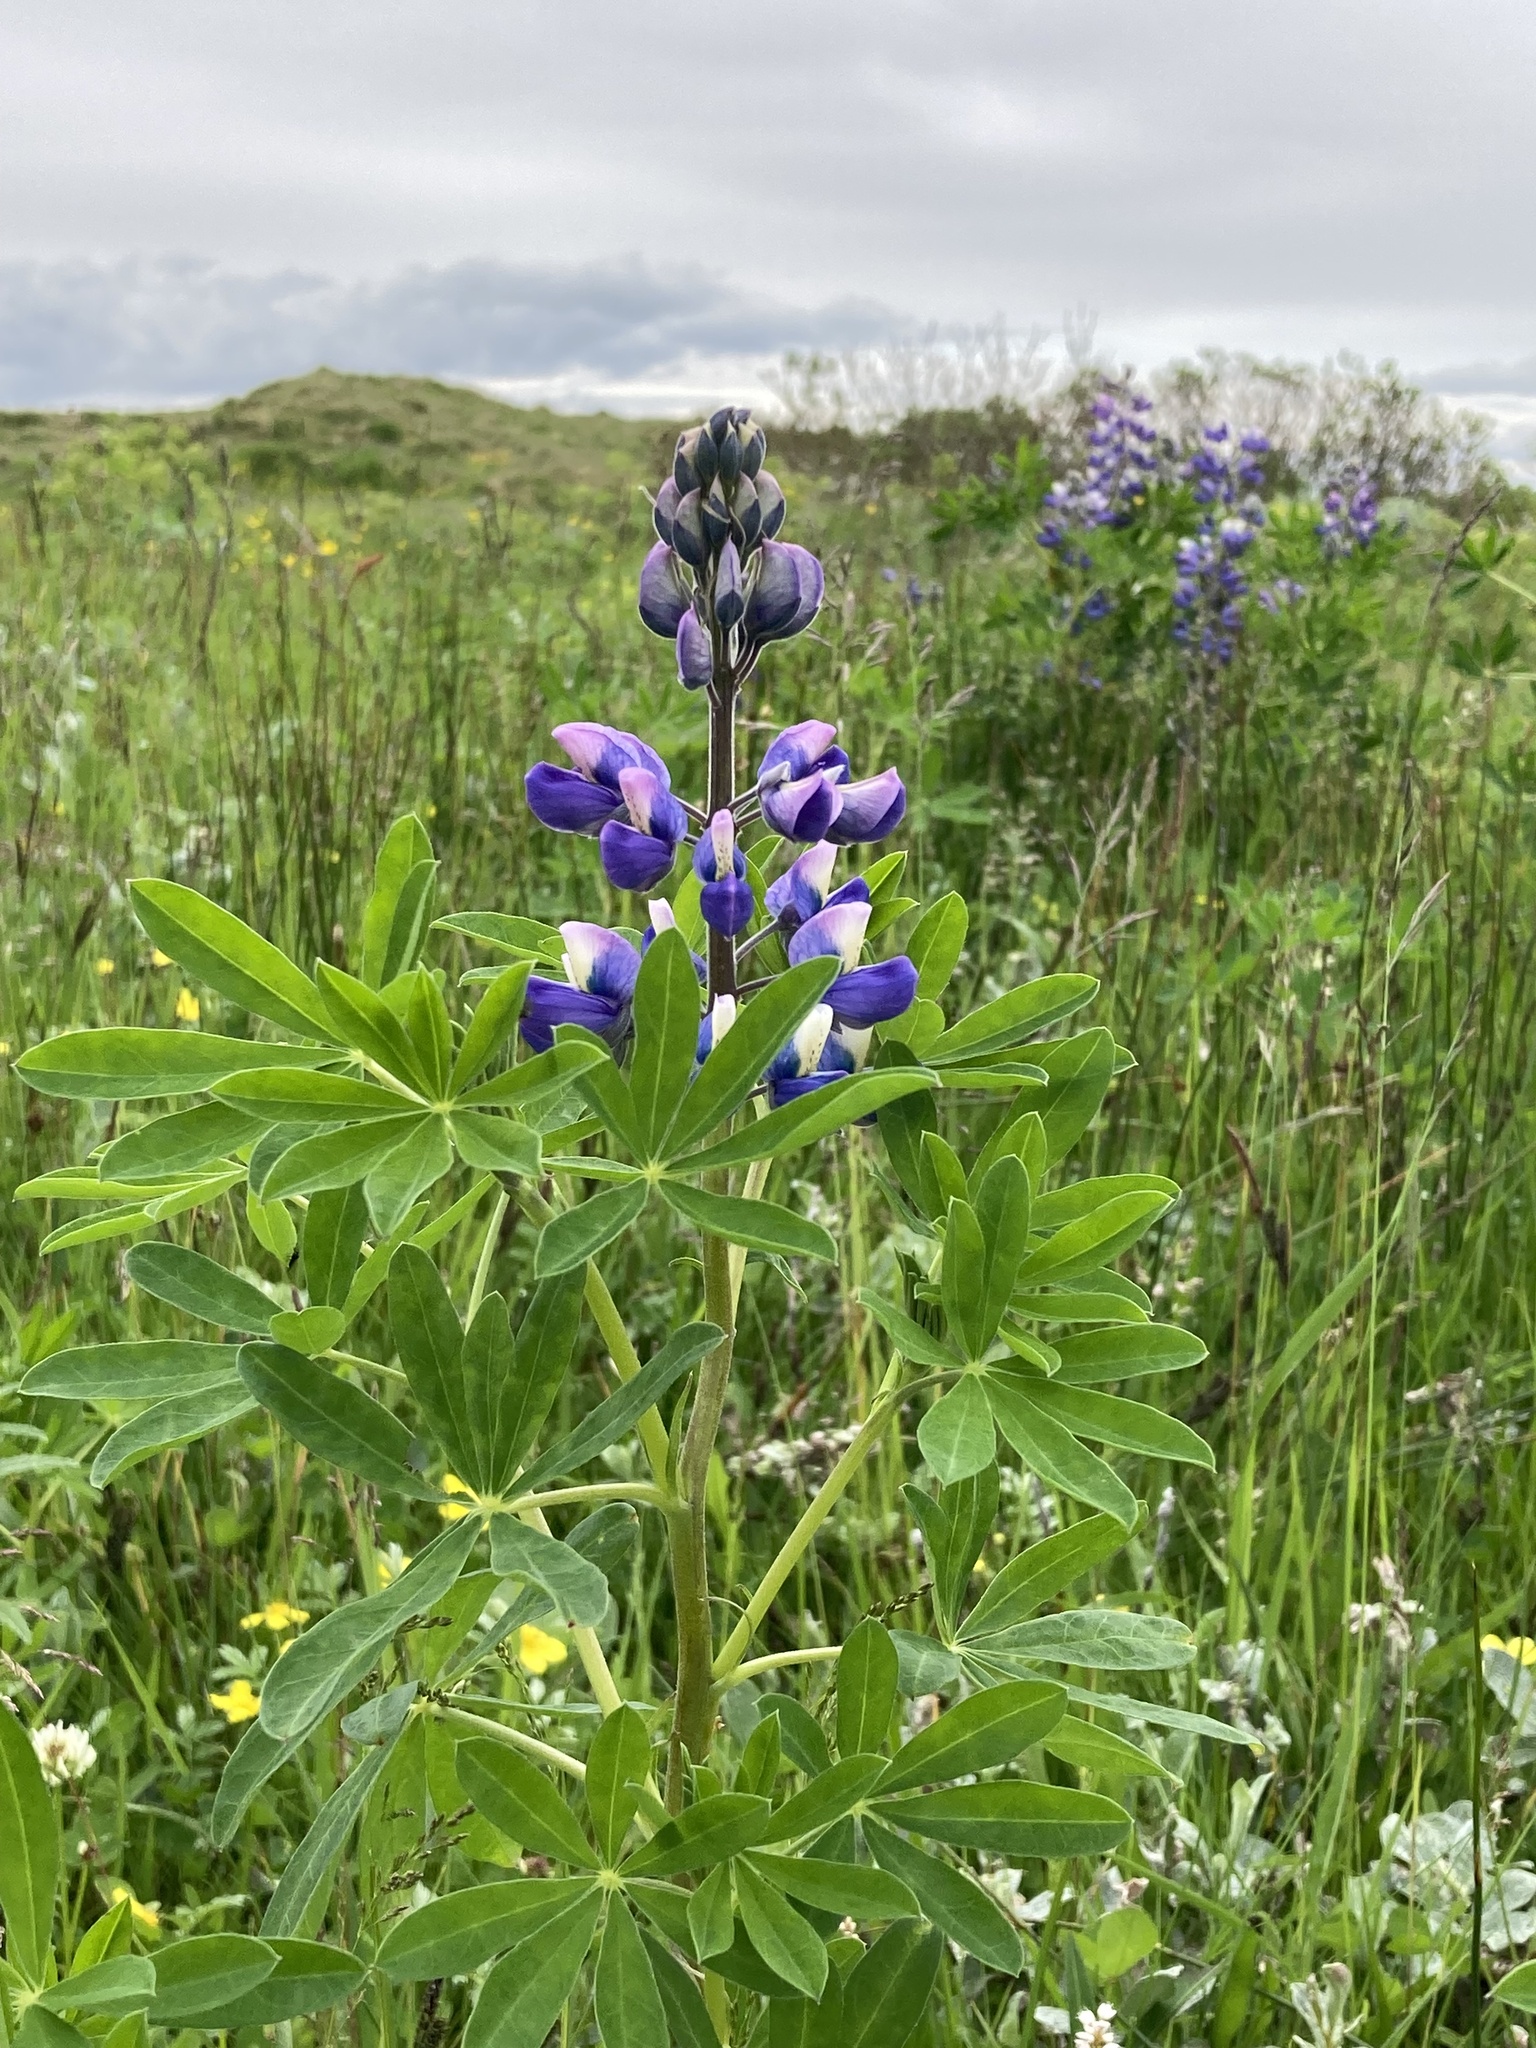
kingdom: Plantae
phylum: Tracheophyta
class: Magnoliopsida
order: Fabales
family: Fabaceae
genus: Lupinus
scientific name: Lupinus nootkatensis
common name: Nootka lupine
